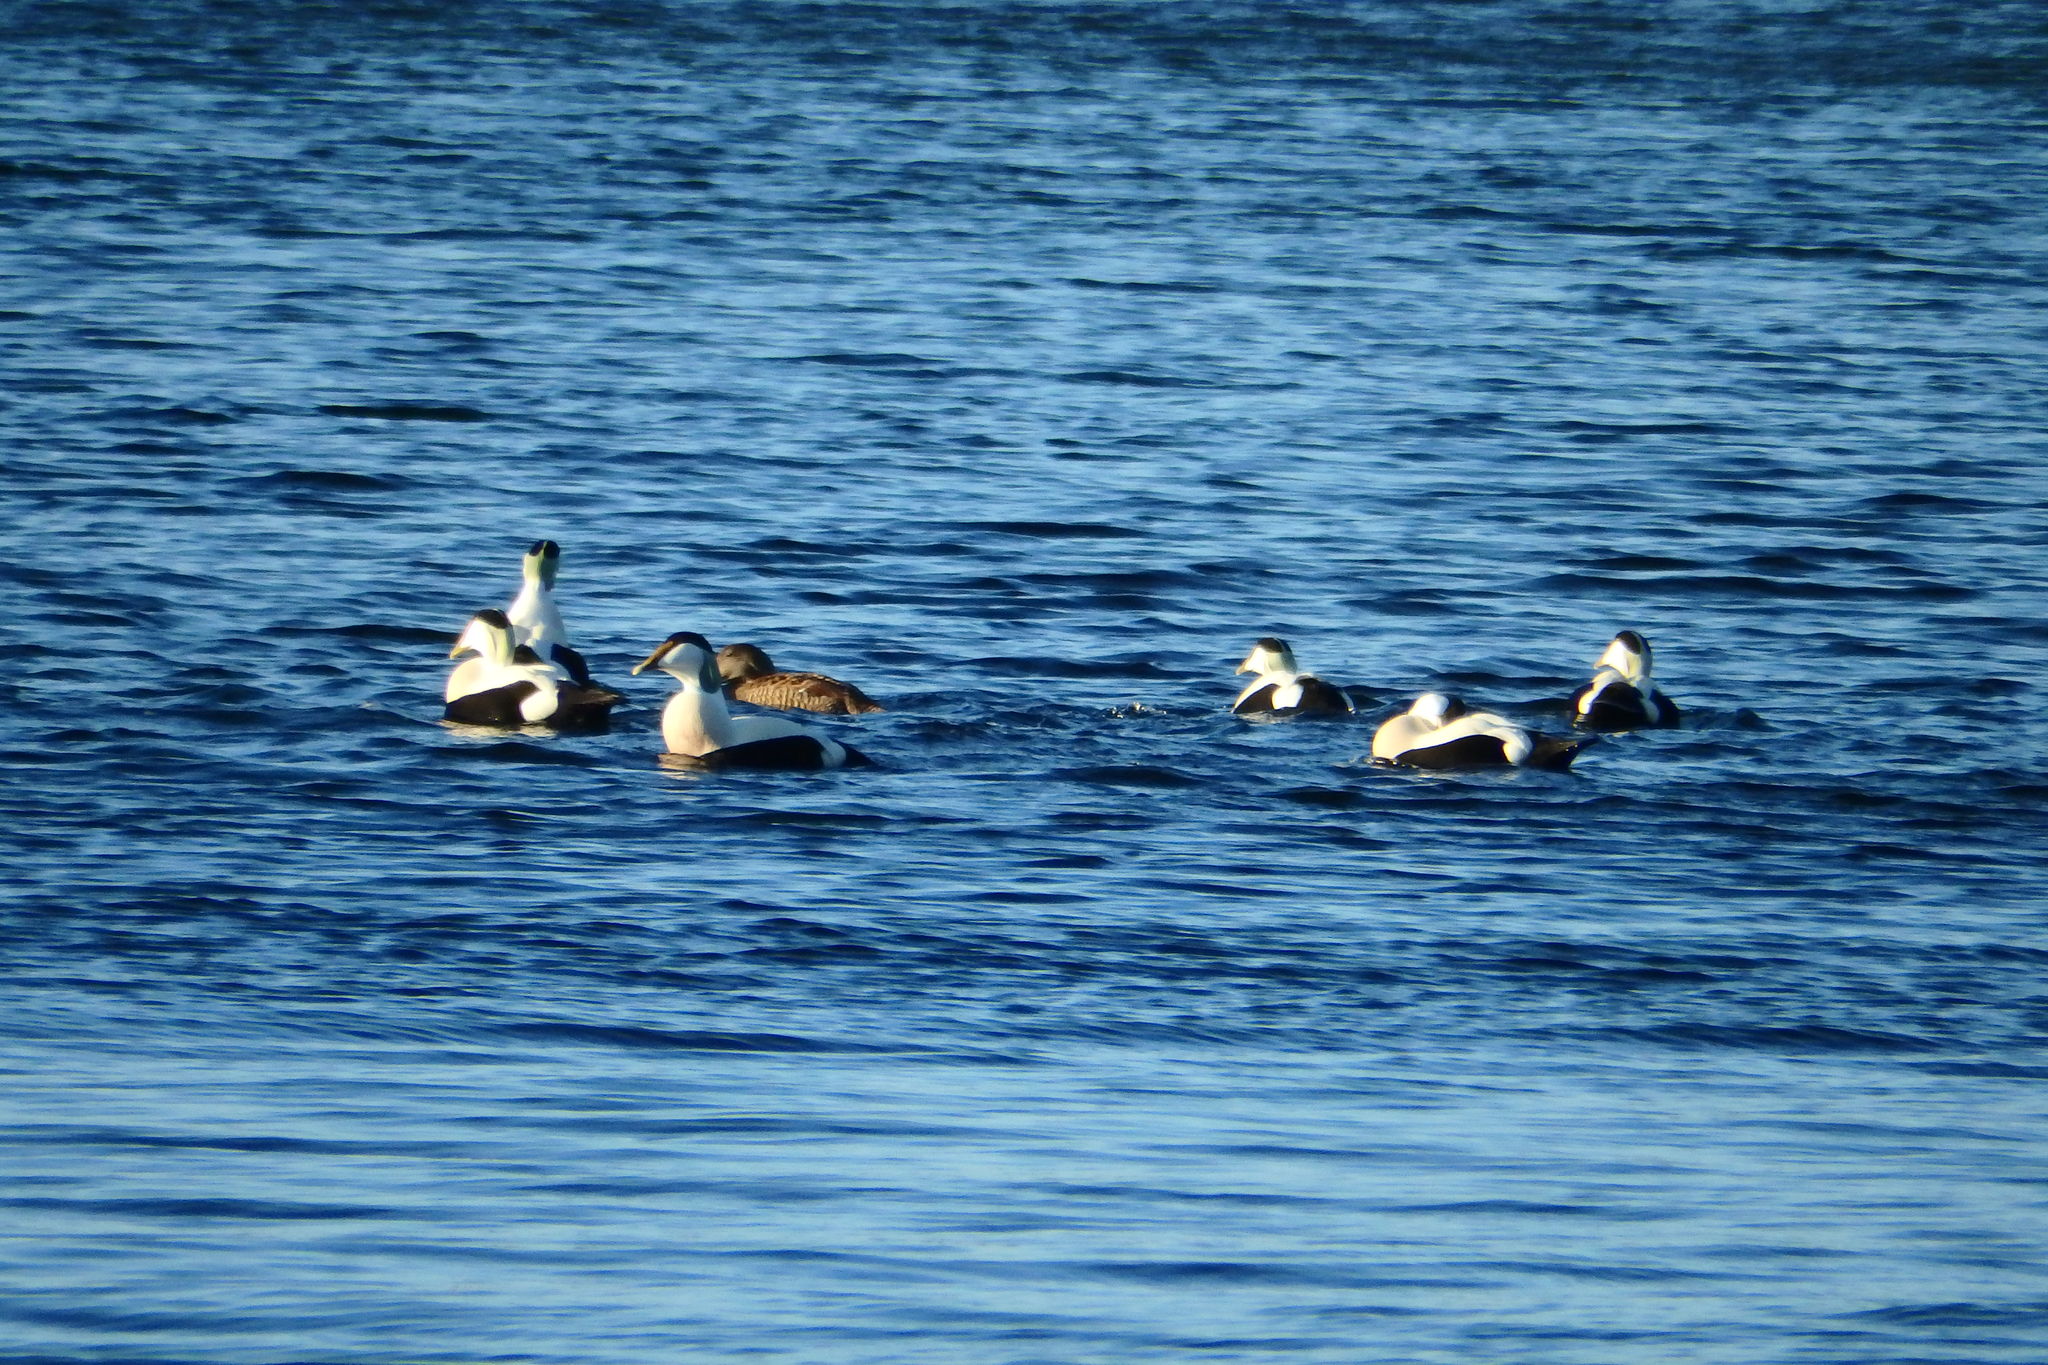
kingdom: Animalia
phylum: Chordata
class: Aves
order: Anseriformes
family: Anatidae
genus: Somateria
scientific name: Somateria mollissima
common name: Common eider
